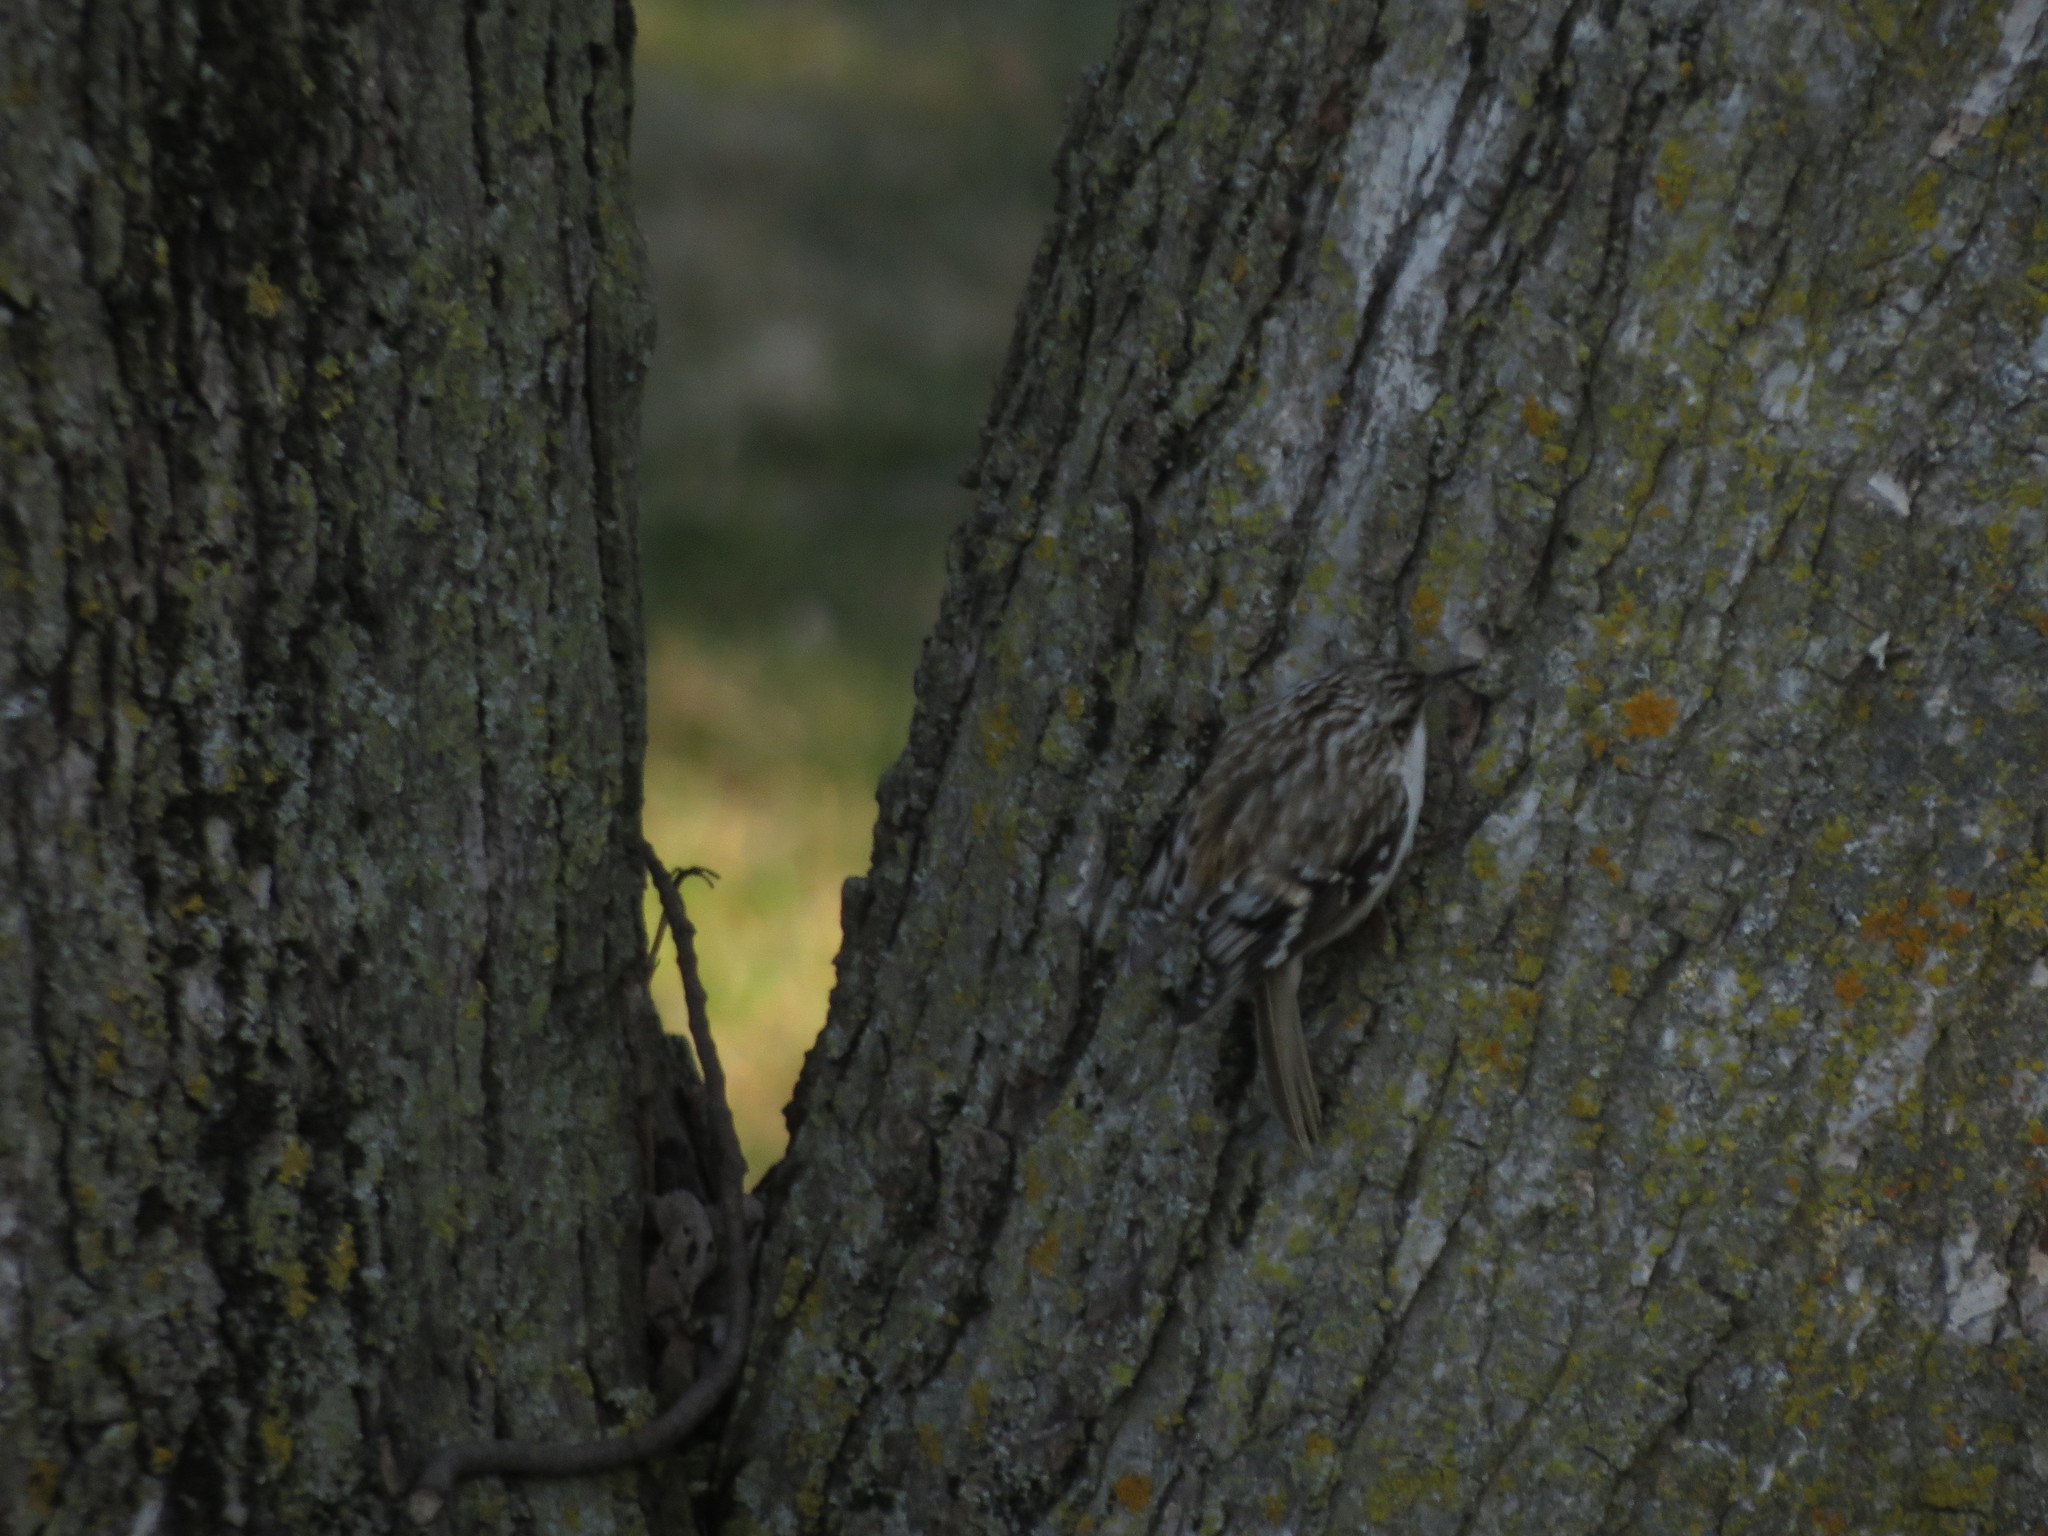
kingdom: Animalia
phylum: Chordata
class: Aves
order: Passeriformes
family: Certhiidae
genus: Certhia
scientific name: Certhia americana
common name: Brown creeper
